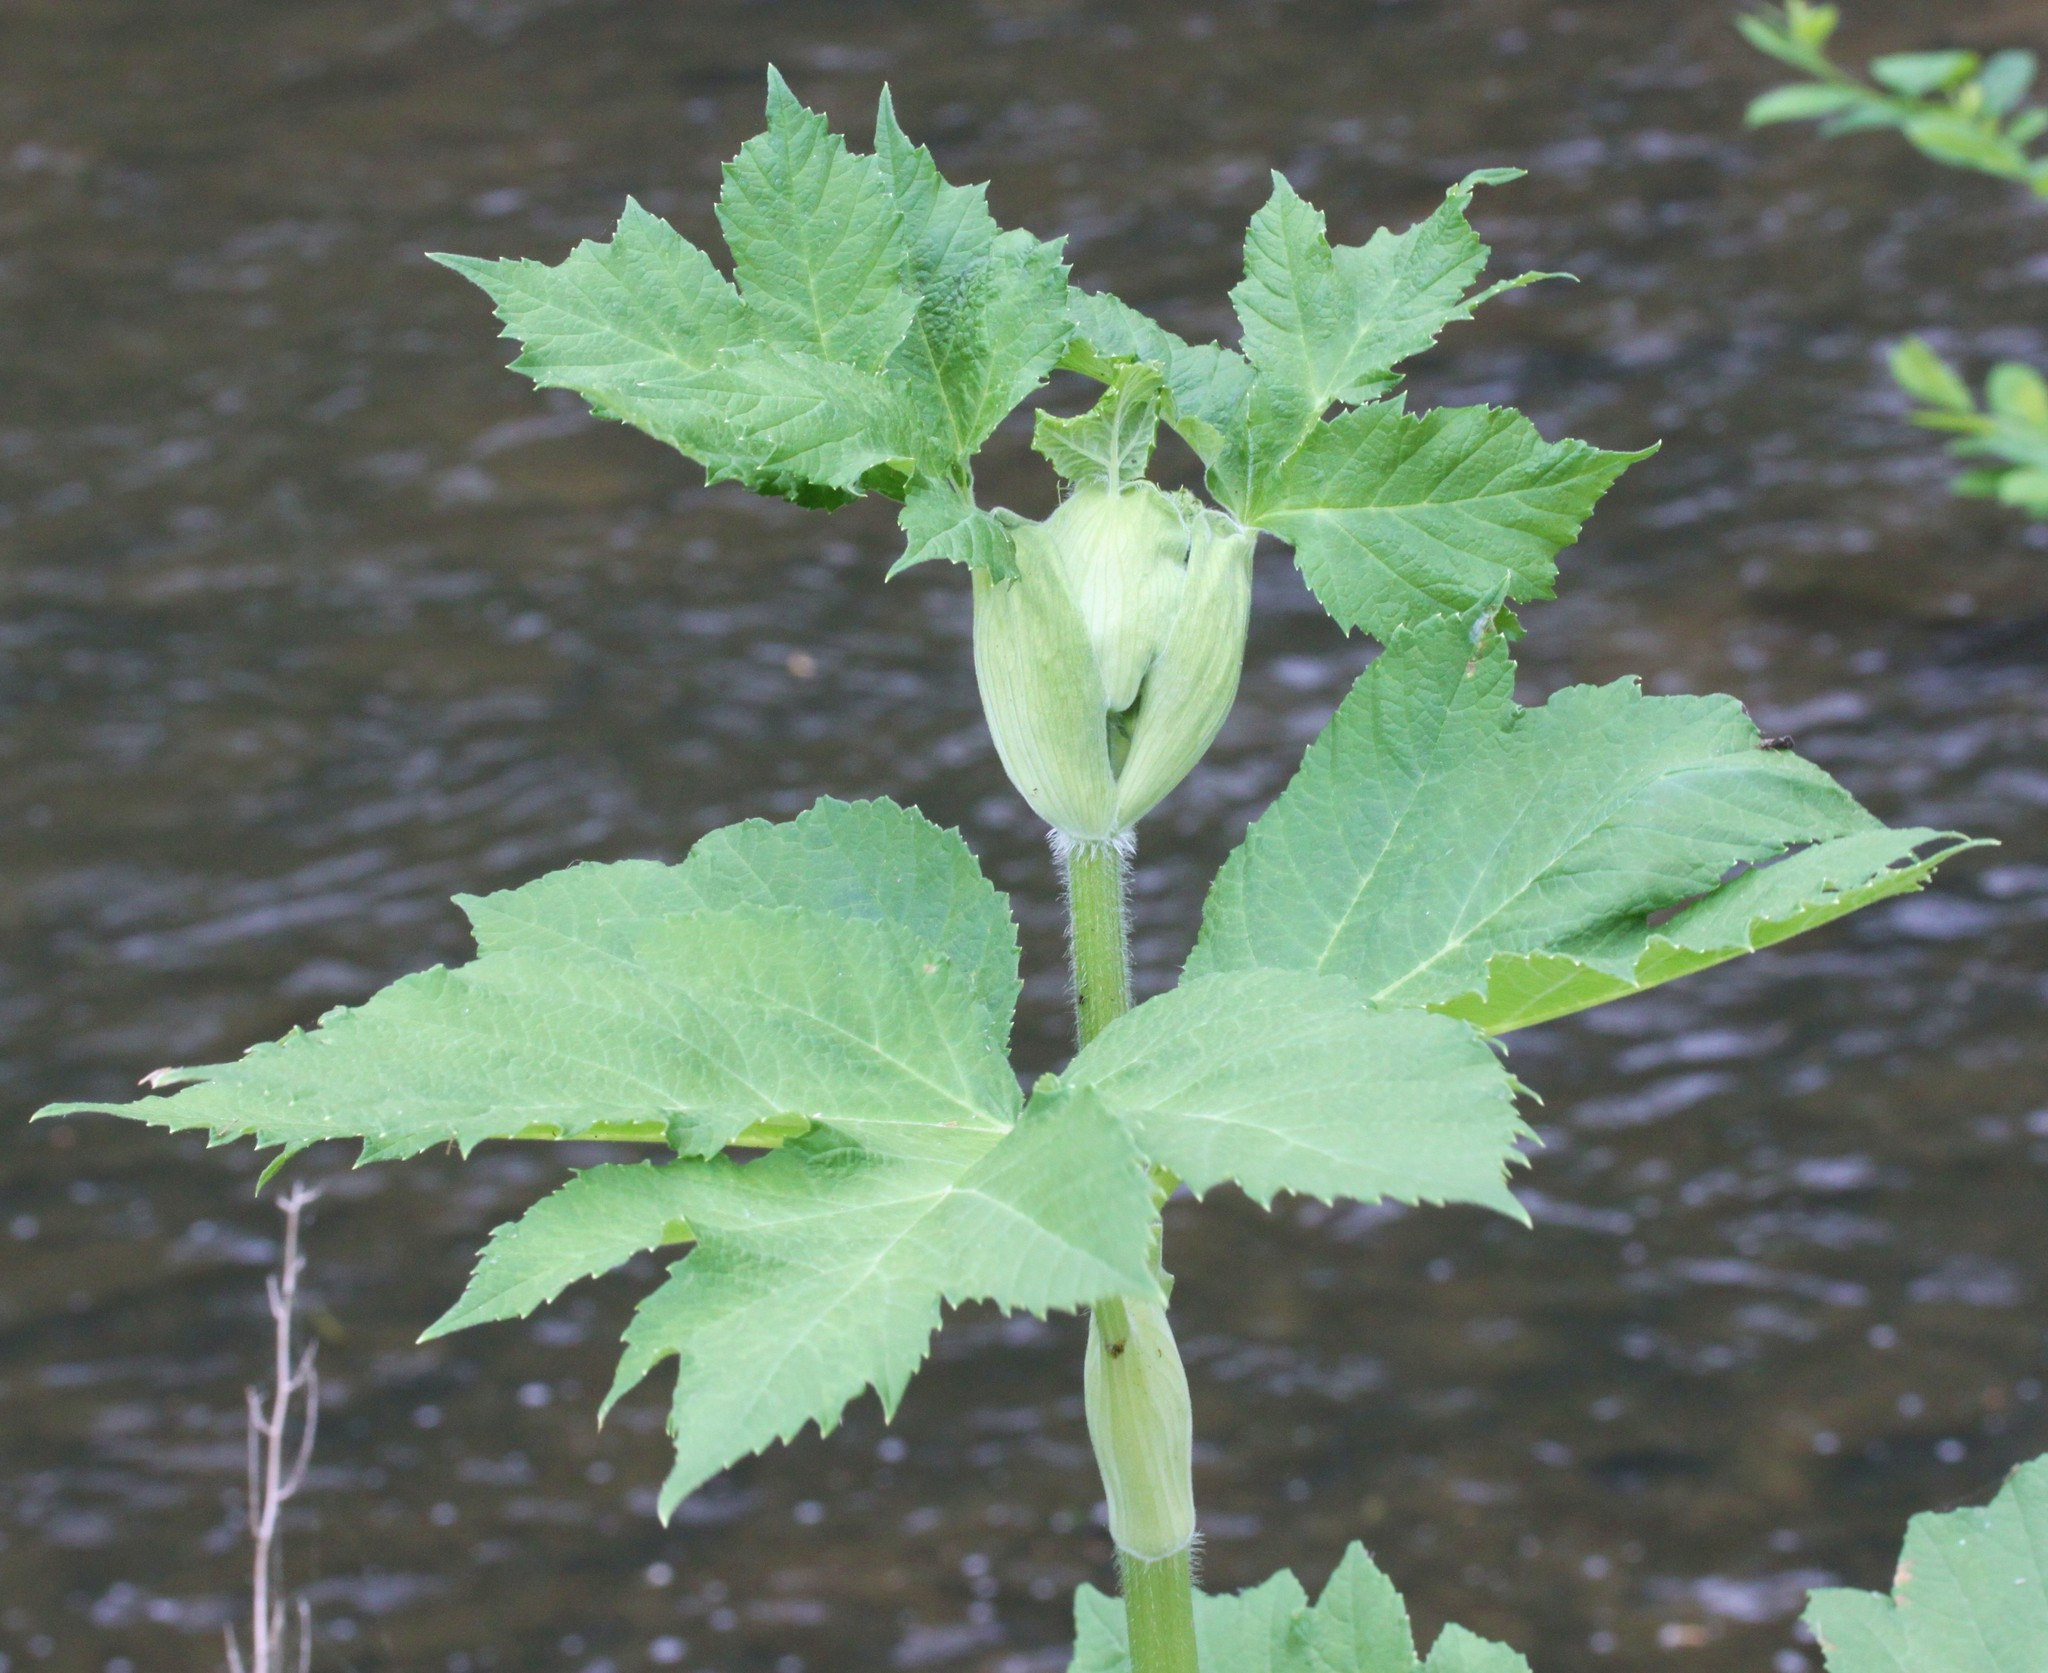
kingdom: Plantae
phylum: Tracheophyta
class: Magnoliopsida
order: Apiales
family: Apiaceae
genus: Heracleum
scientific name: Heracleum maximum
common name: American cow parsnip
